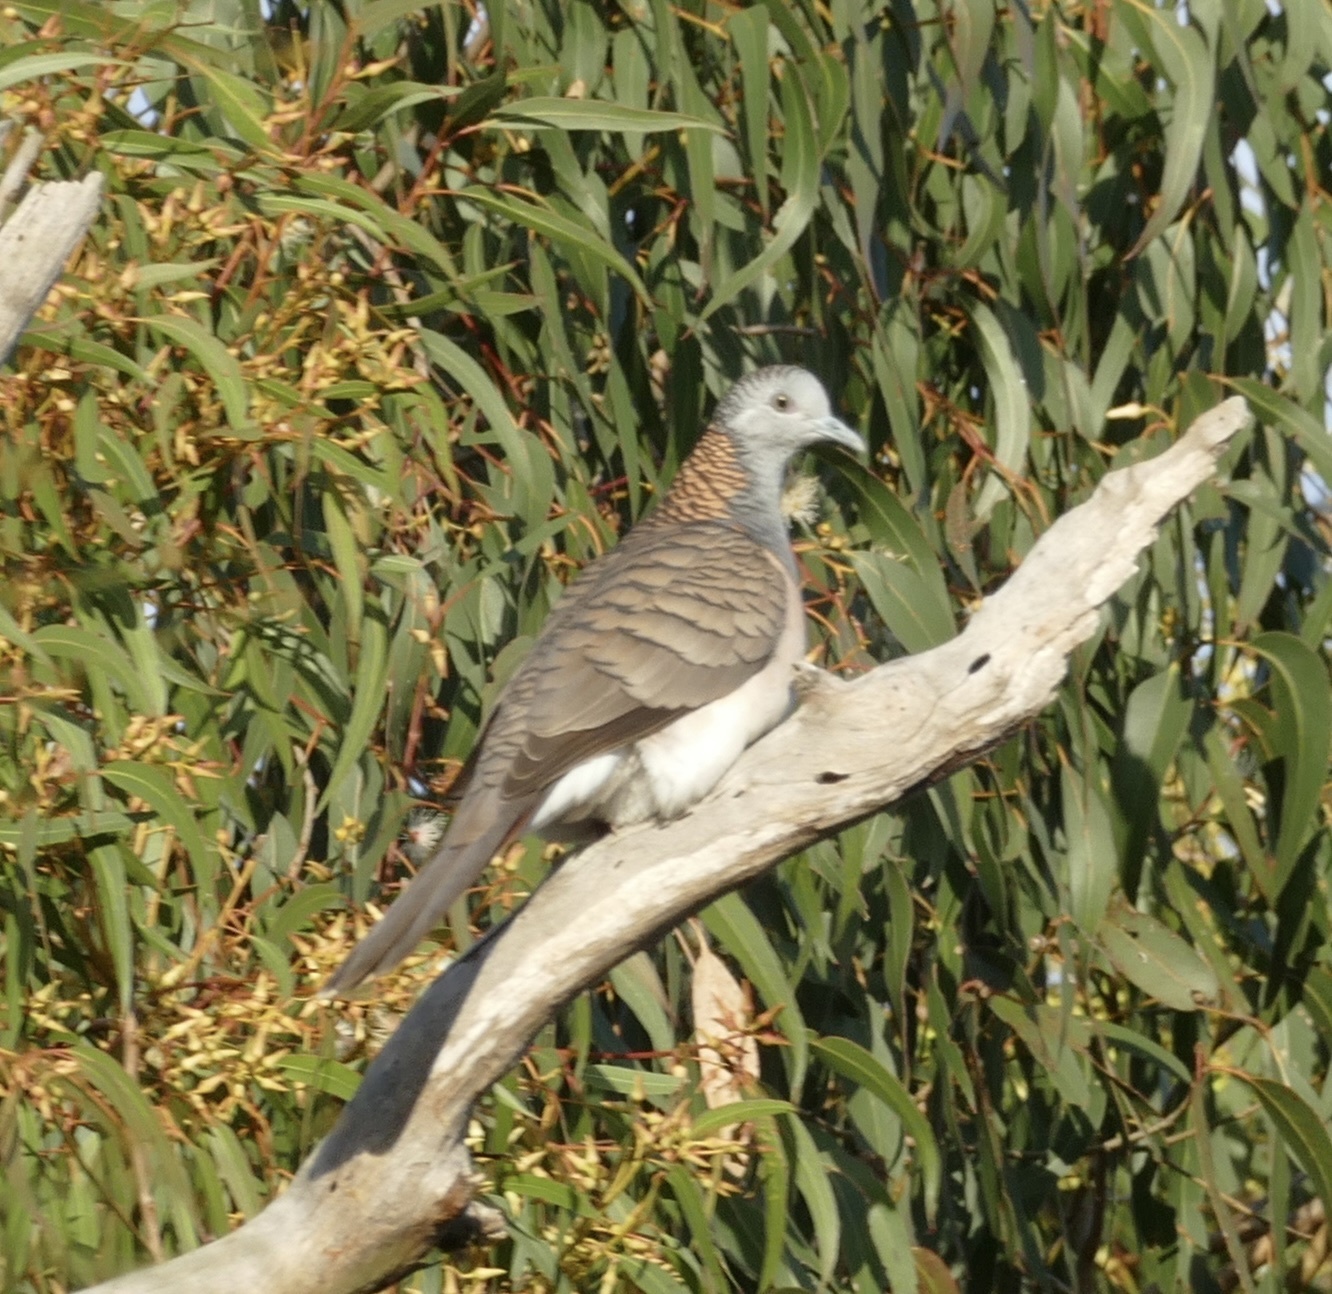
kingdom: Animalia
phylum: Chordata
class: Aves
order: Columbiformes
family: Columbidae
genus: Geopelia
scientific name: Geopelia humeralis
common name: Bar-shouldered dove
